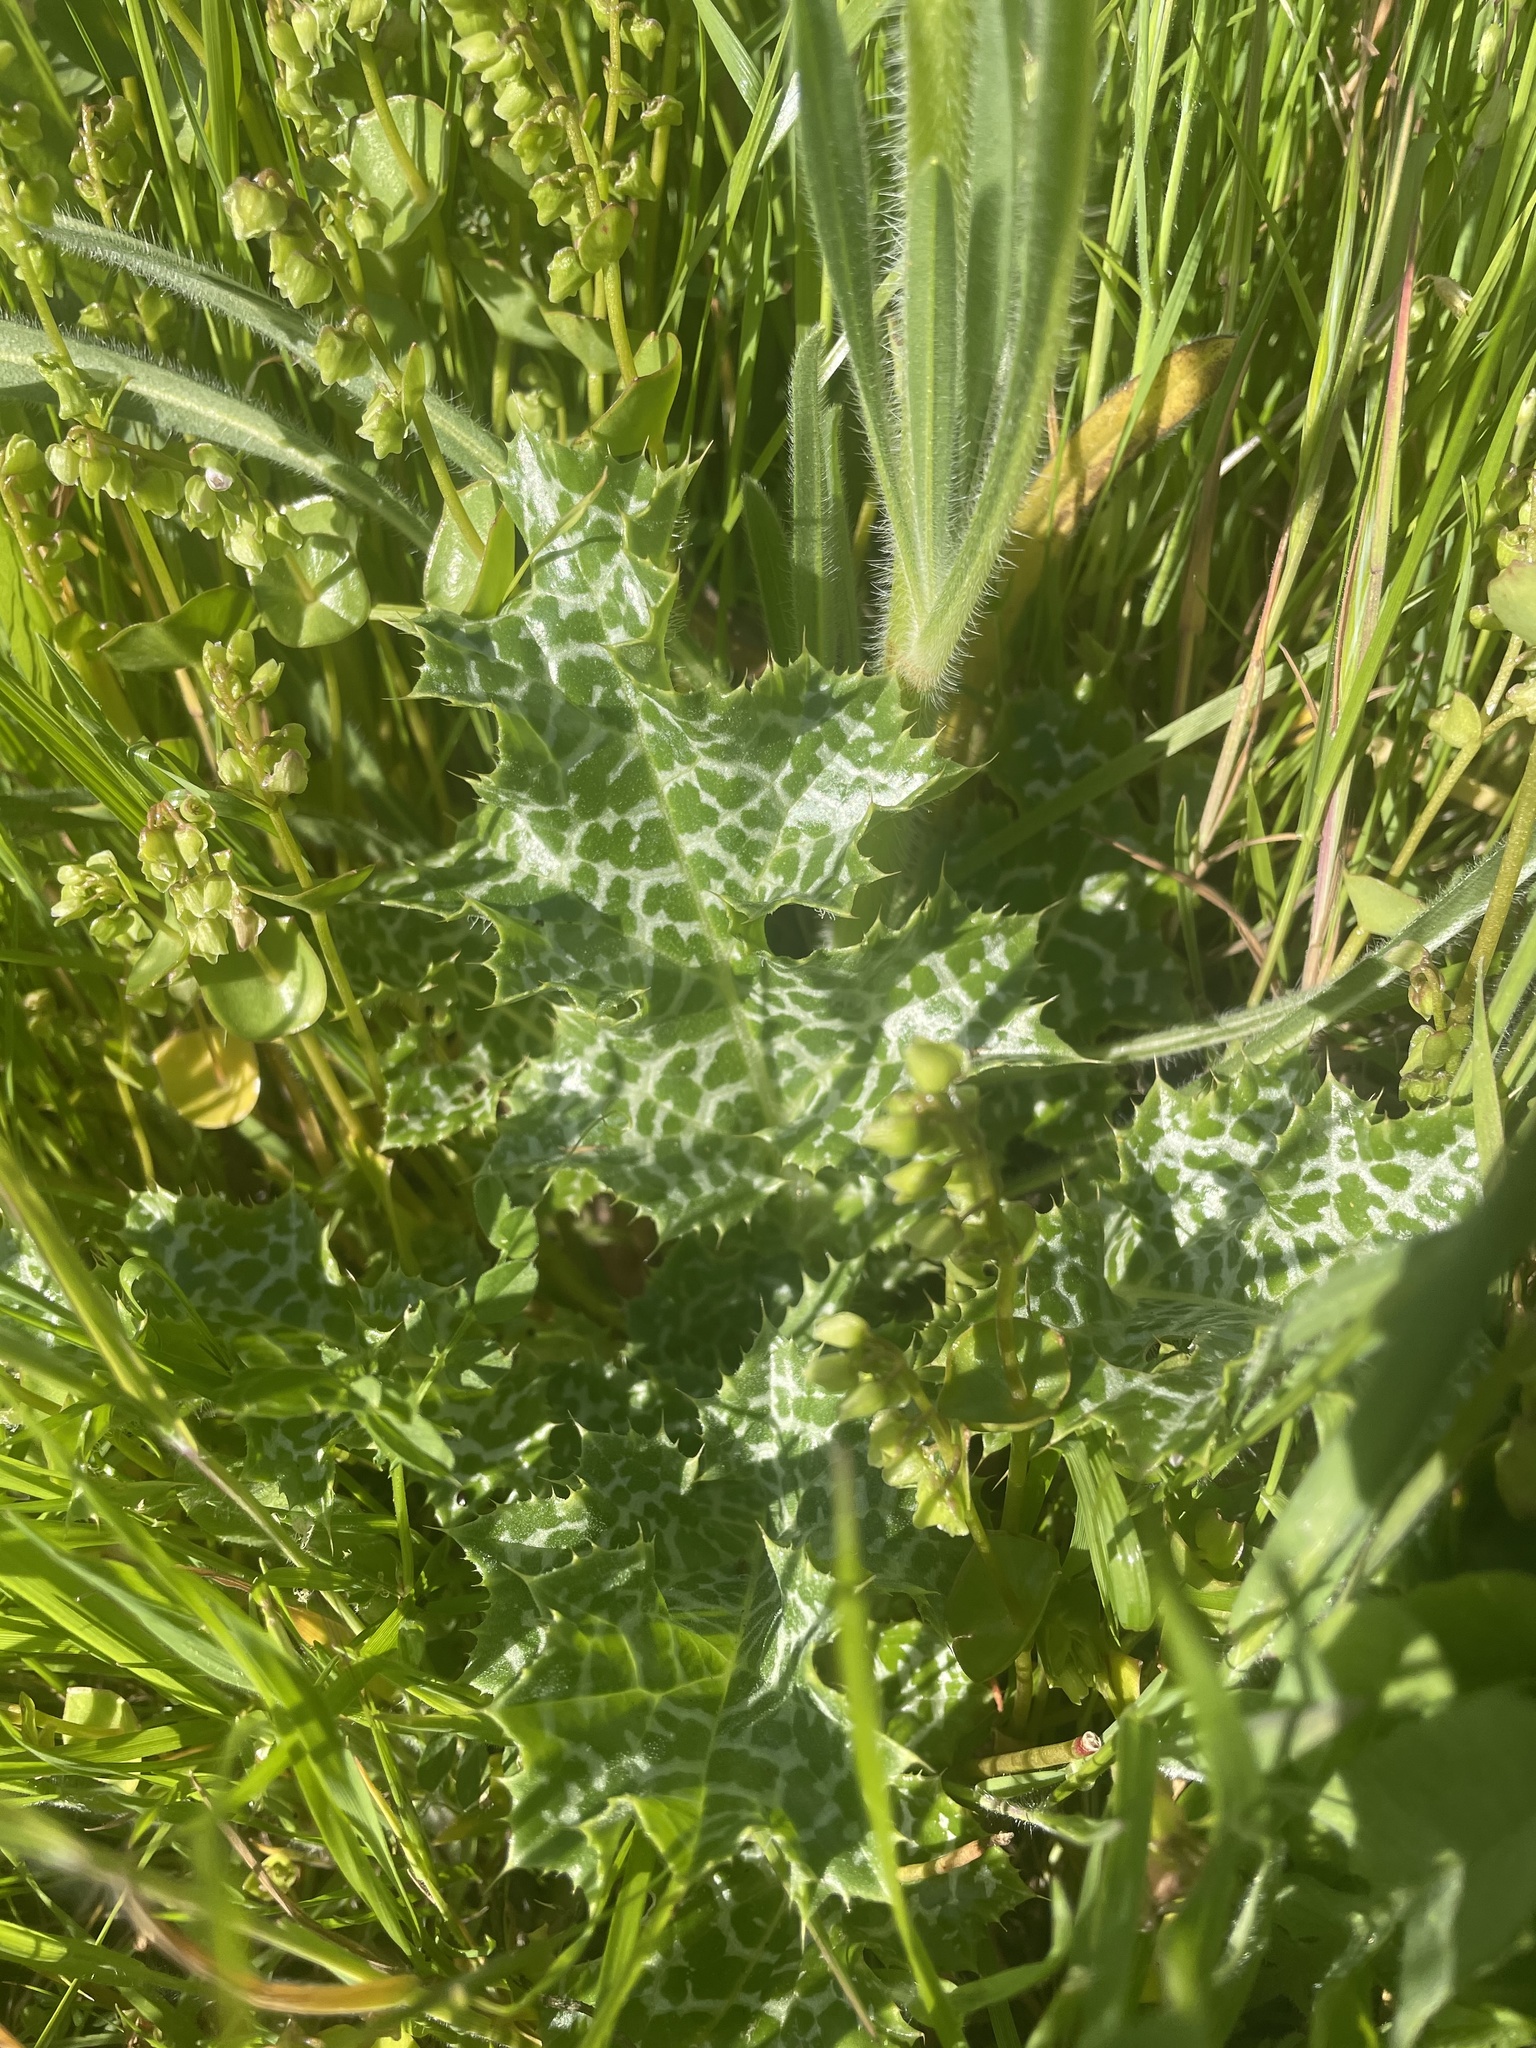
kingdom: Plantae
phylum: Tracheophyta
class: Magnoliopsida
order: Asterales
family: Asteraceae
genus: Silybum
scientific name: Silybum marianum
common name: Milk thistle
